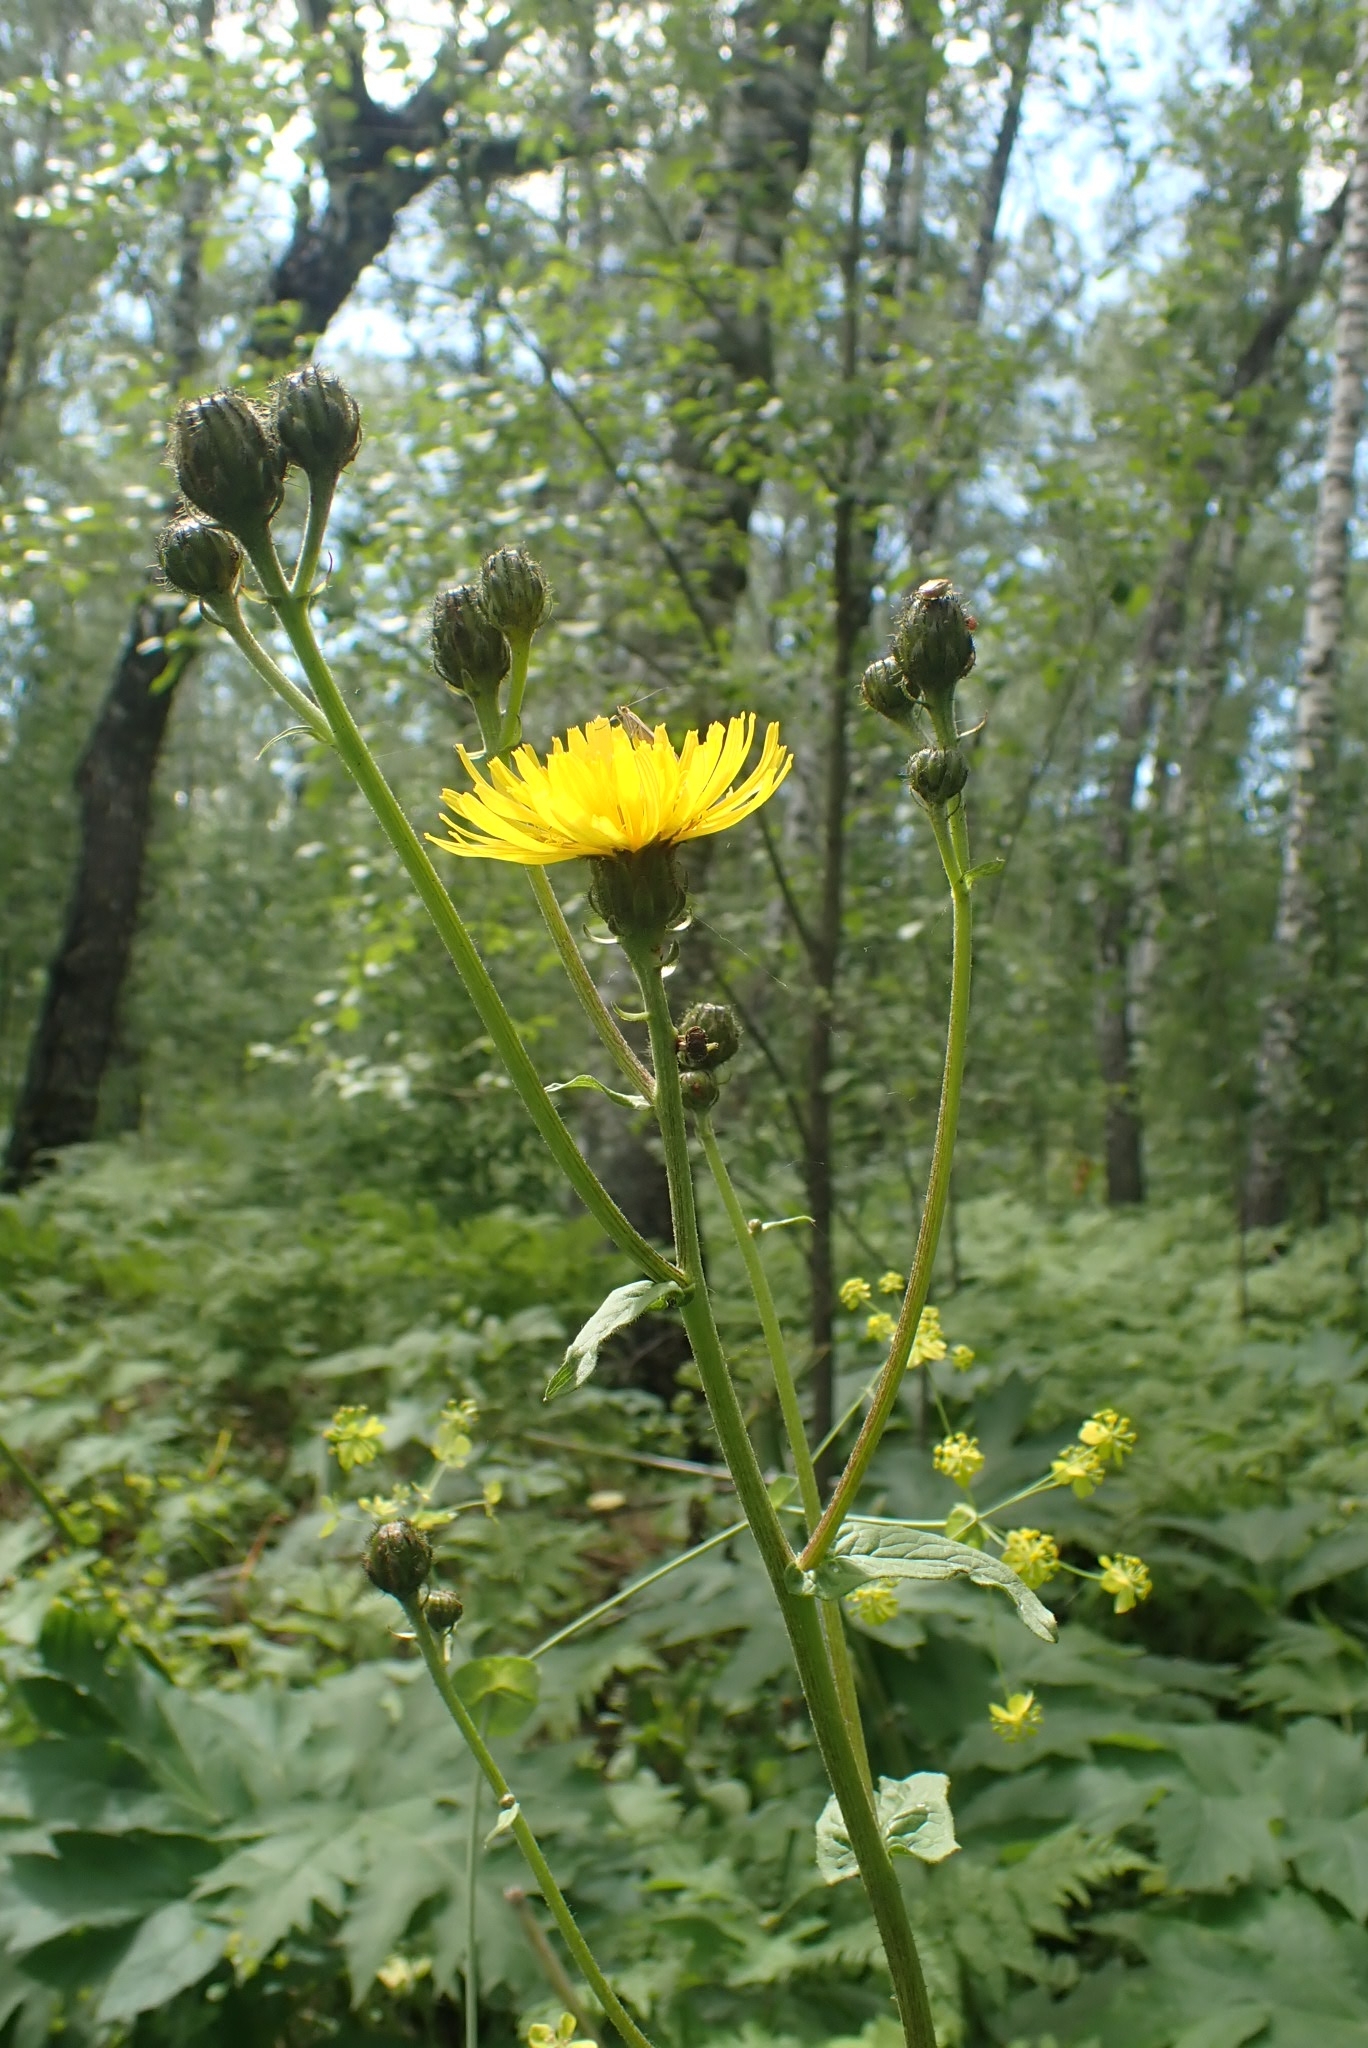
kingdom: Plantae
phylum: Tracheophyta
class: Magnoliopsida
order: Asterales
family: Asteraceae
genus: Crepis
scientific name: Crepis sibirica
